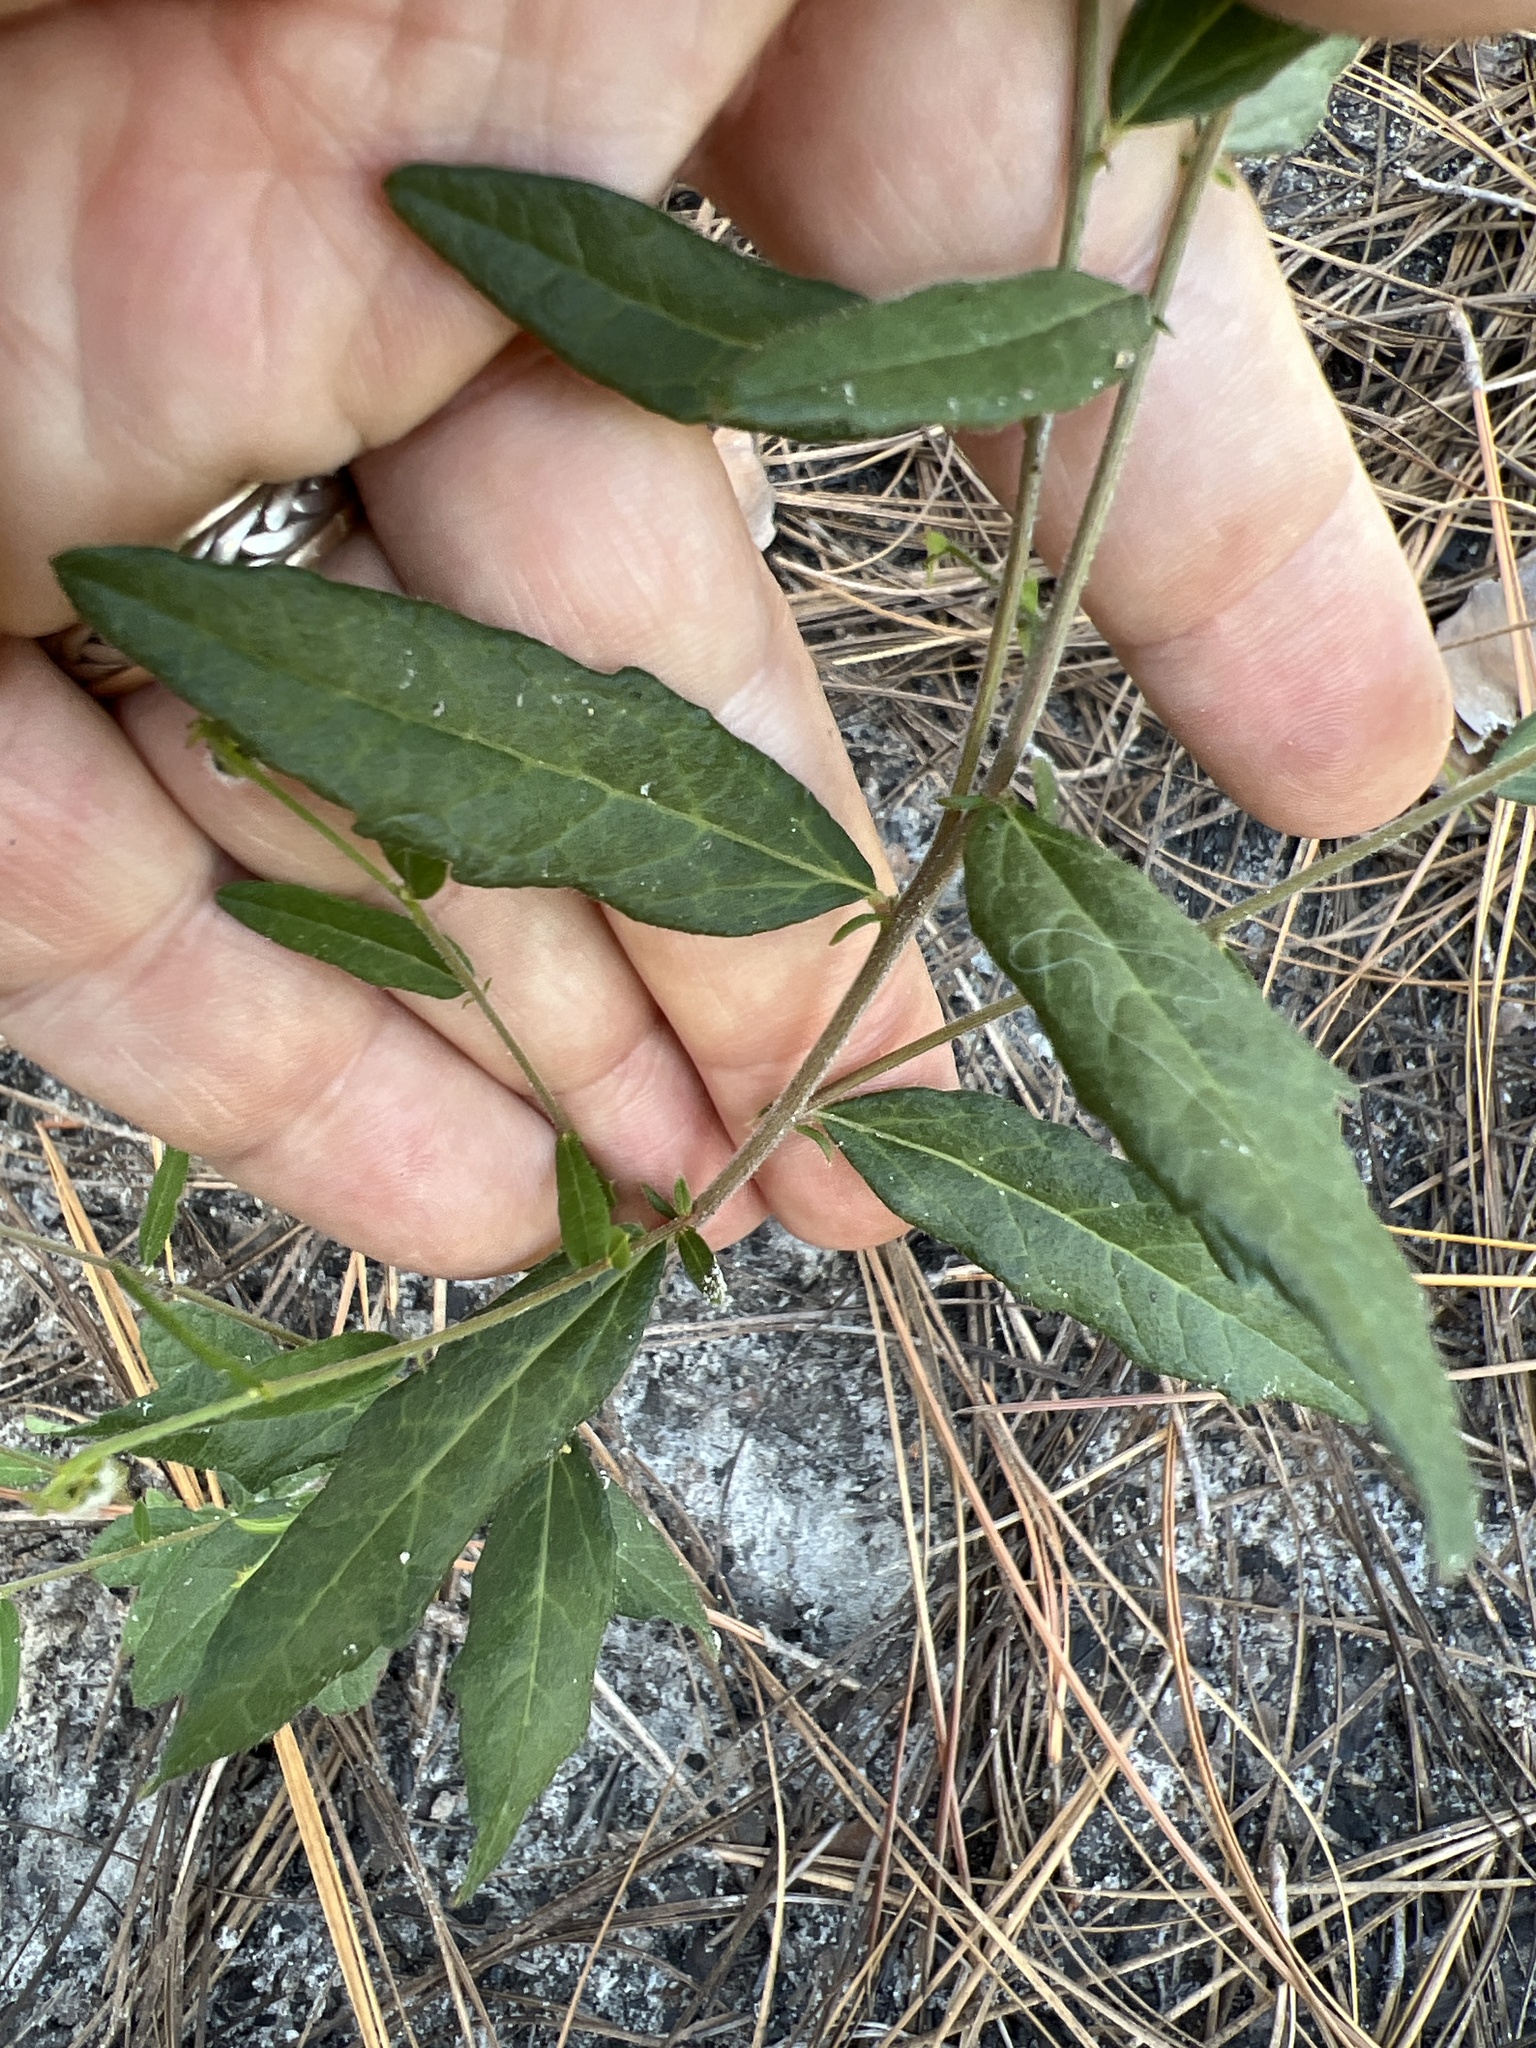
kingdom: Plantae
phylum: Tracheophyta
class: Magnoliopsida
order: Malpighiales
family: Euphorbiaceae
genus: Tragia
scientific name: Tragia urens
